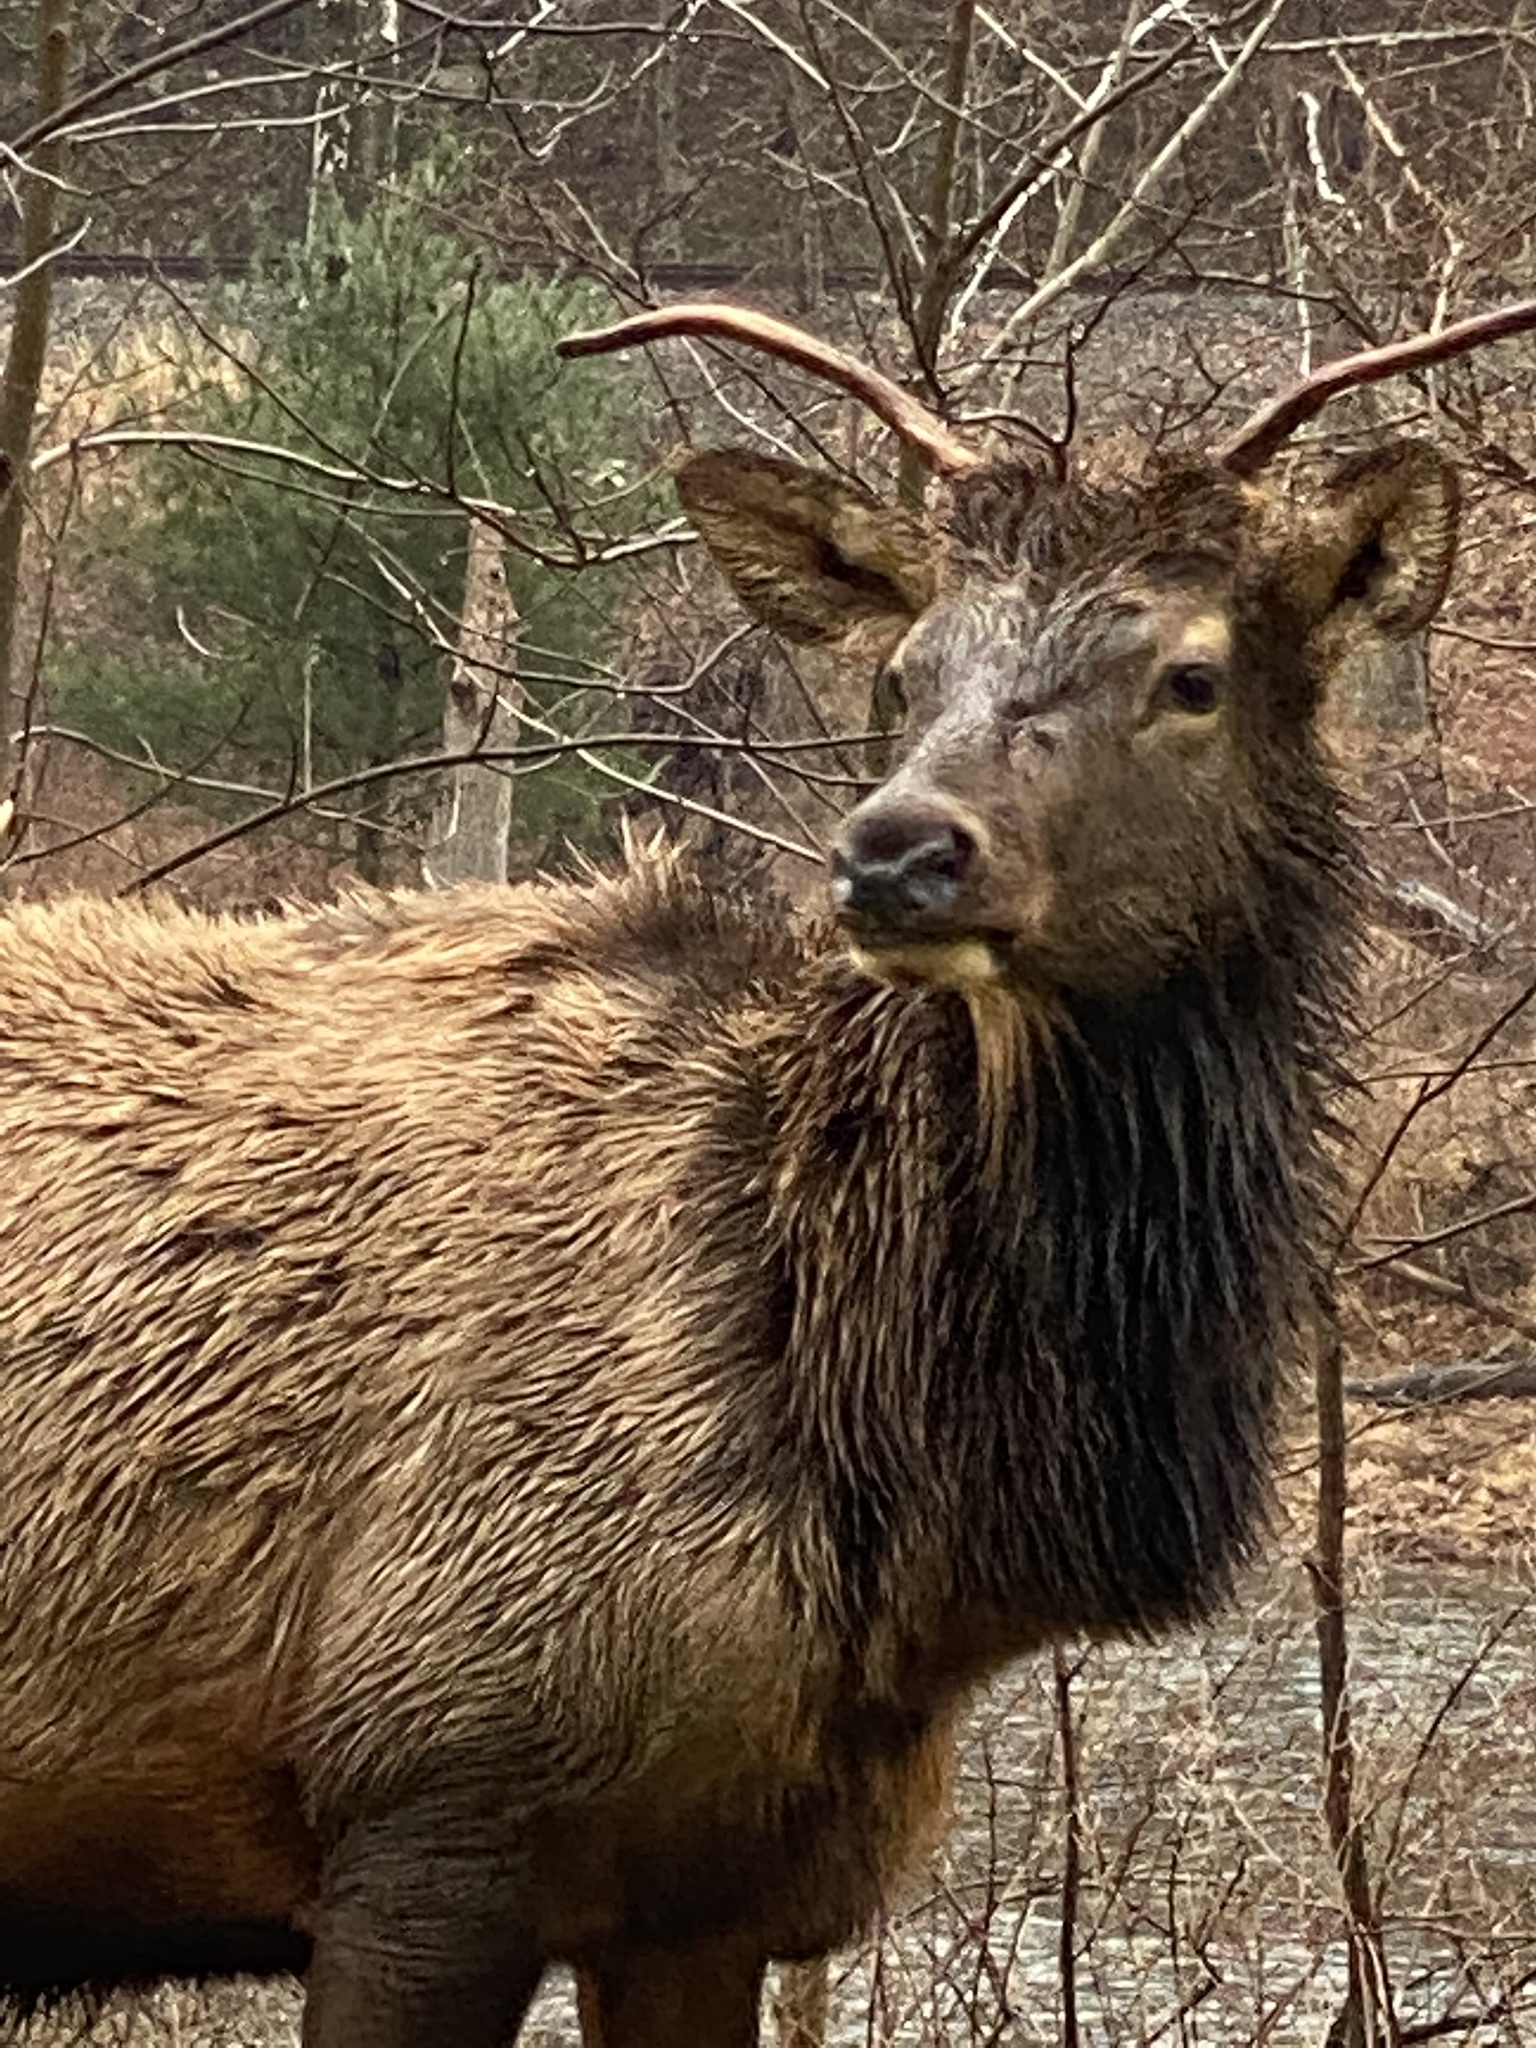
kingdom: Animalia
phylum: Chordata
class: Mammalia
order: Artiodactyla
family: Cervidae
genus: Cervus
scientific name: Cervus elaphus
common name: Red deer
